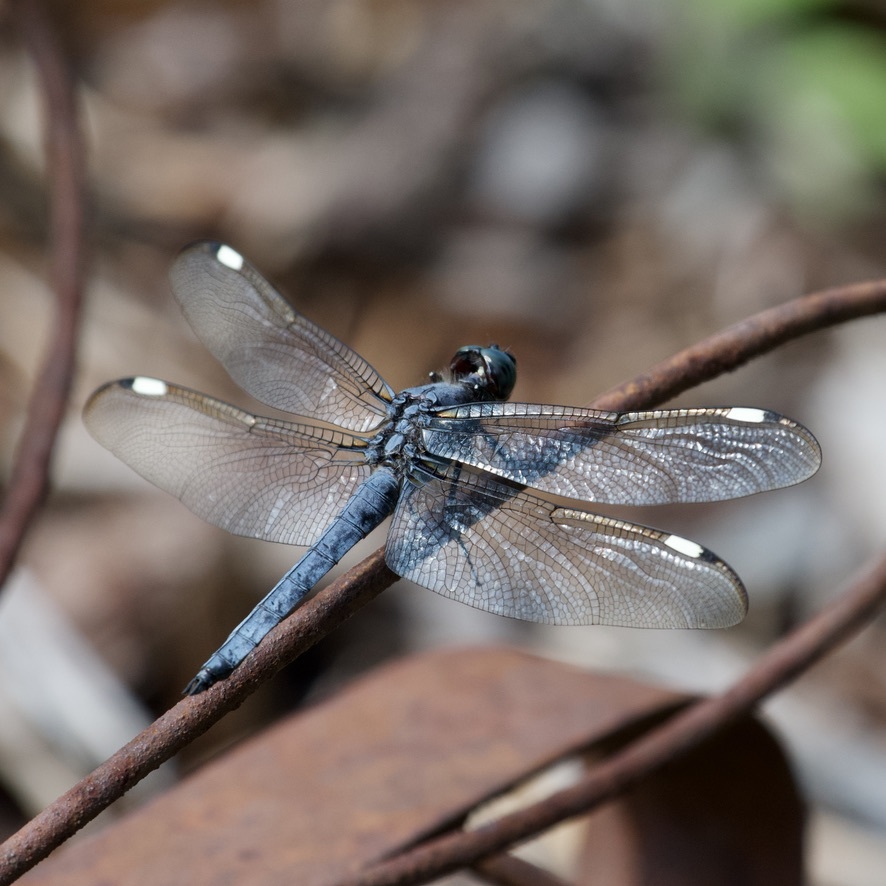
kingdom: Animalia
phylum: Arthropoda
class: Insecta
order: Odonata
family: Libellulidae
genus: Libellula
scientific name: Libellula cyanea
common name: Spangled skimmer
